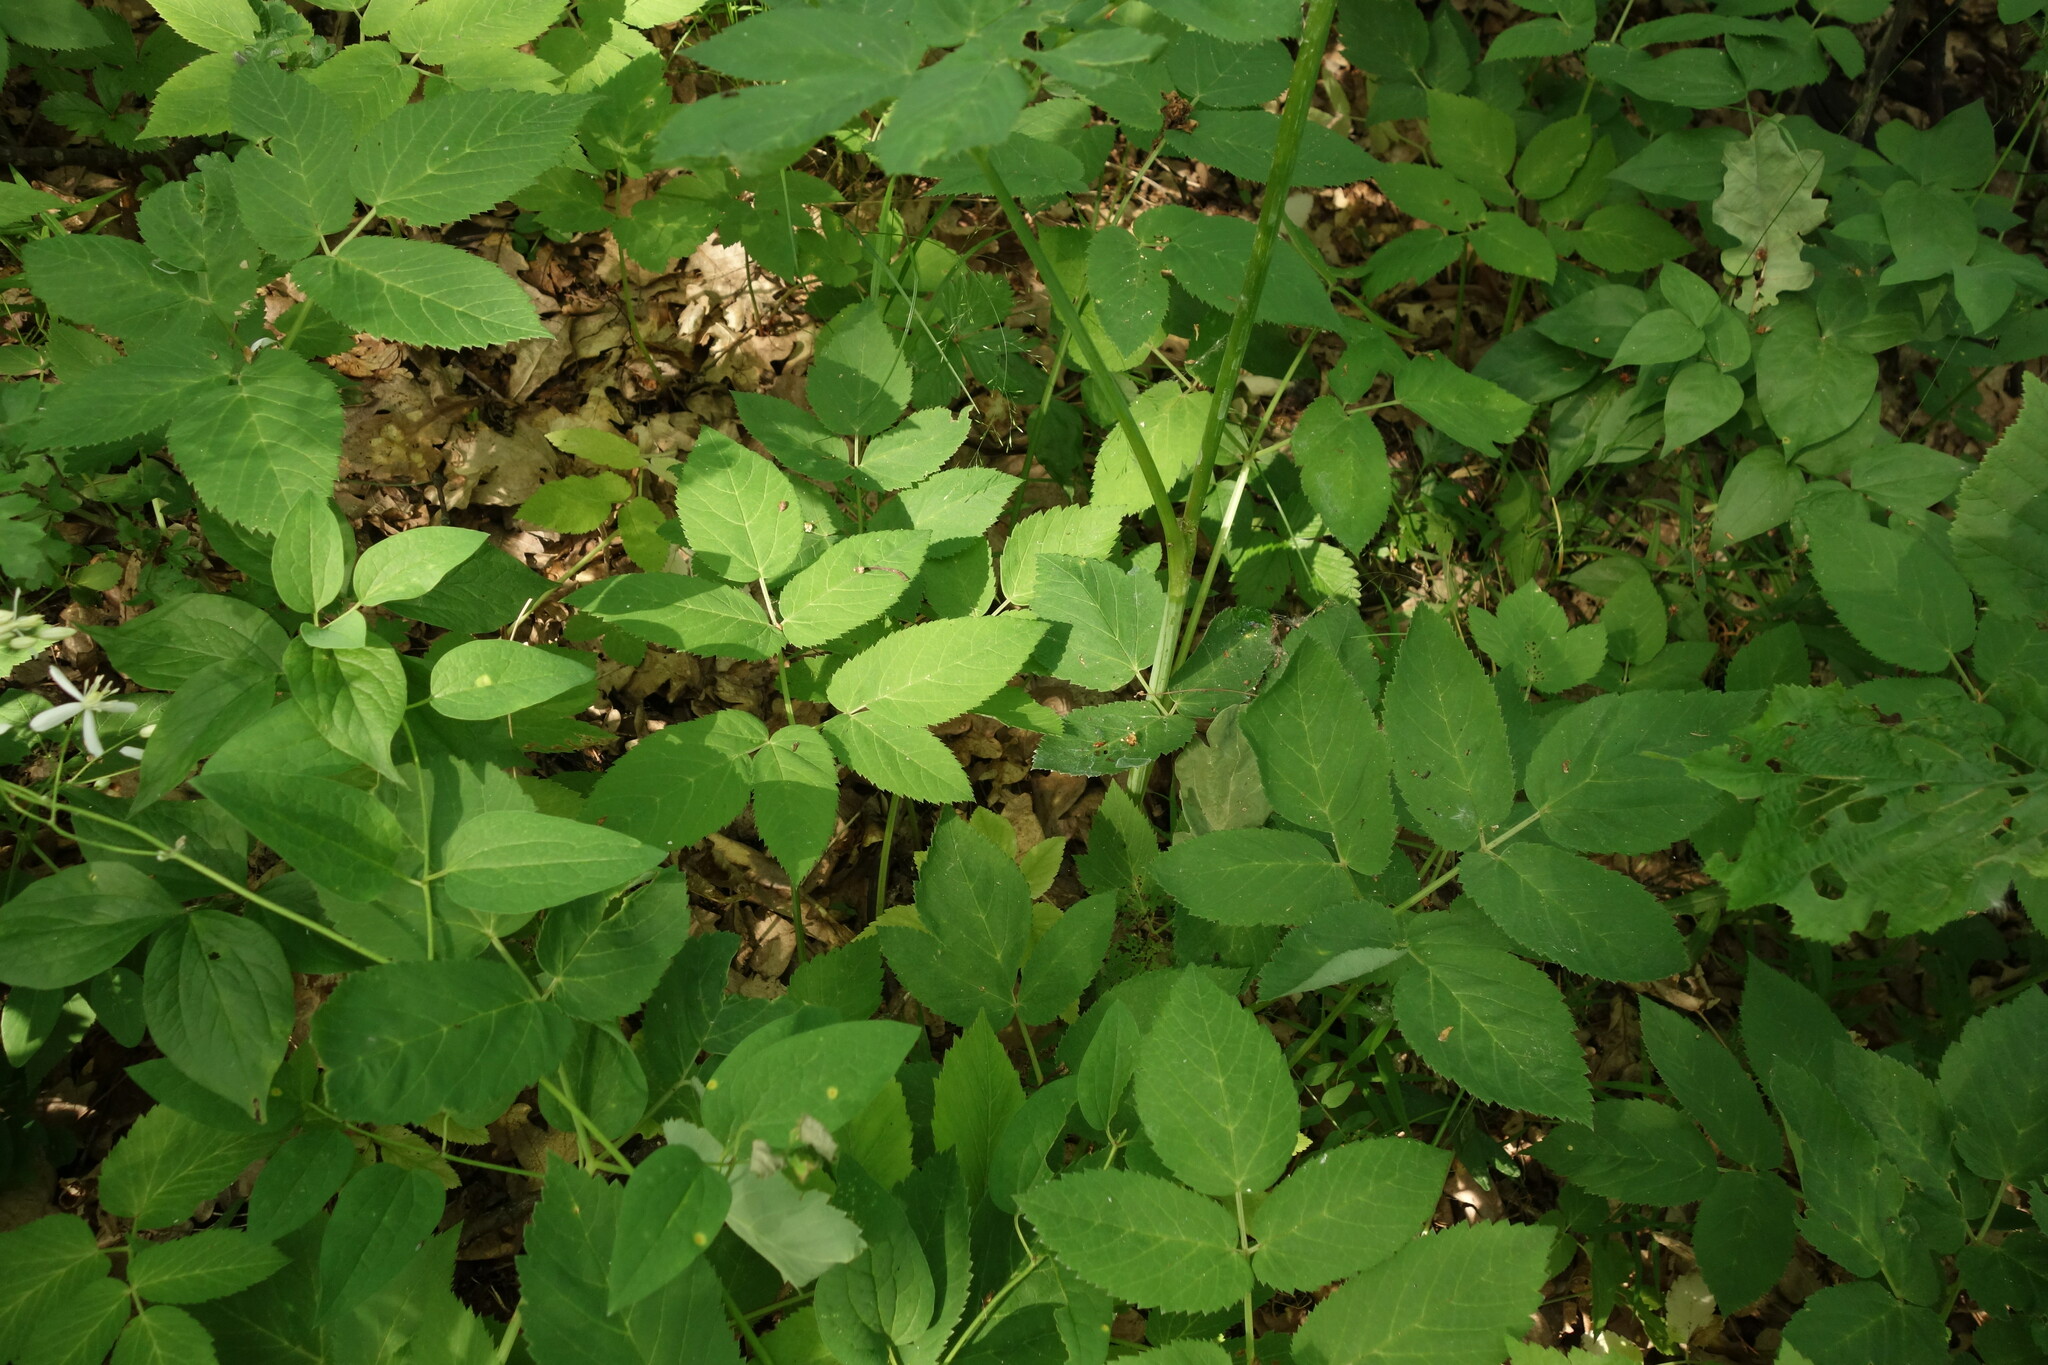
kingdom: Plantae
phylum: Tracheophyta
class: Magnoliopsida
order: Apiales
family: Apiaceae
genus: Aegopodium
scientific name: Aegopodium podagraria
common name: Ground-elder
